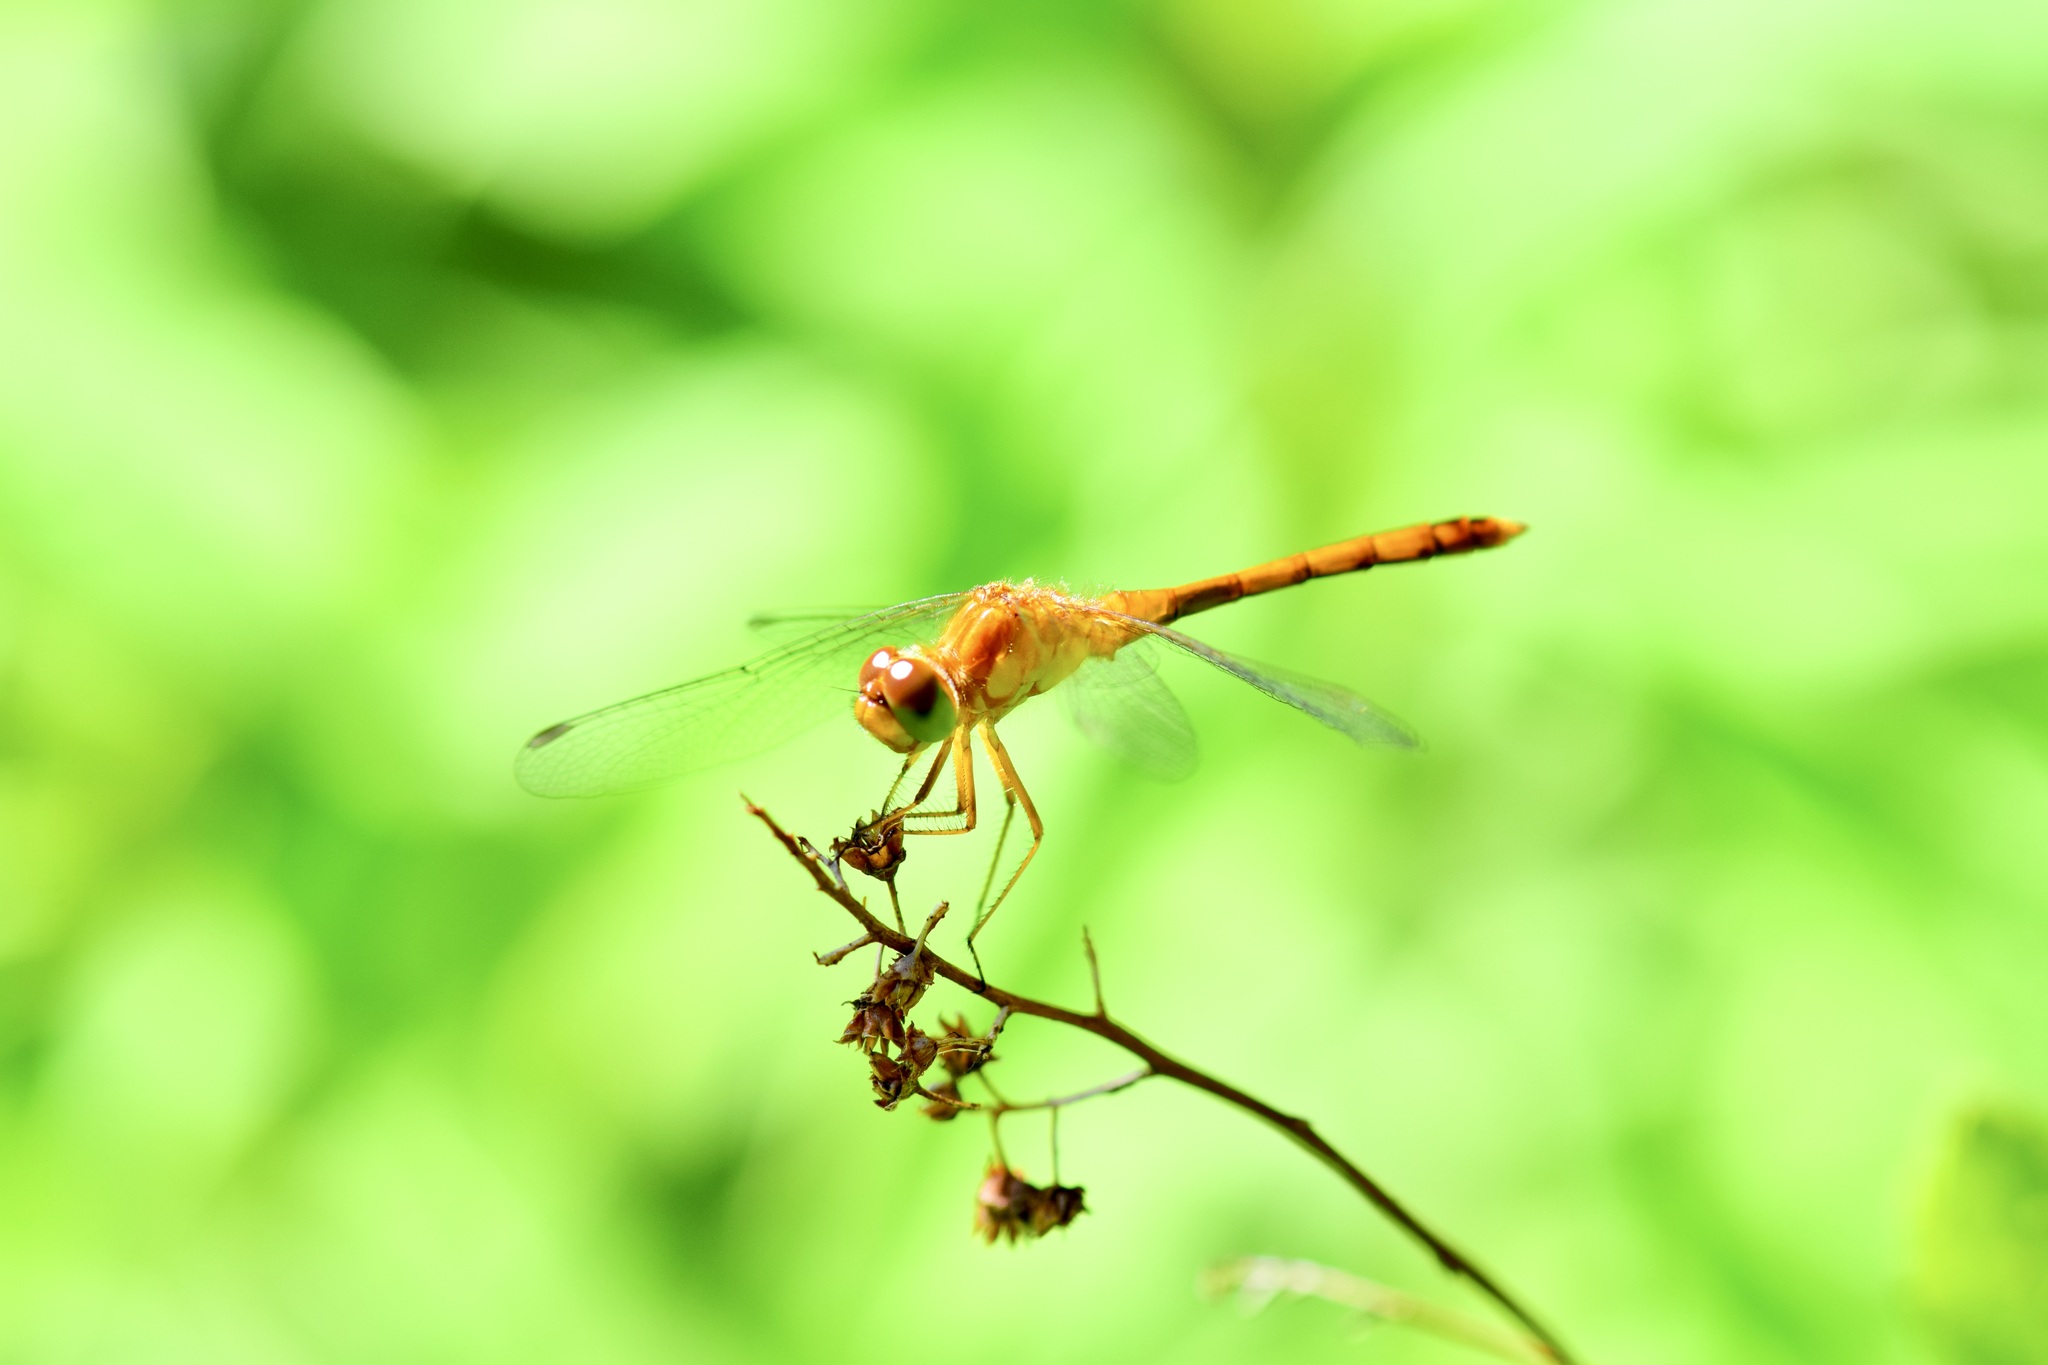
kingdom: Animalia
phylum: Arthropoda
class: Insecta
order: Odonata
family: Libellulidae
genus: Sympetrum
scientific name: Sympetrum vicinum
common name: Autumn meadowhawk
